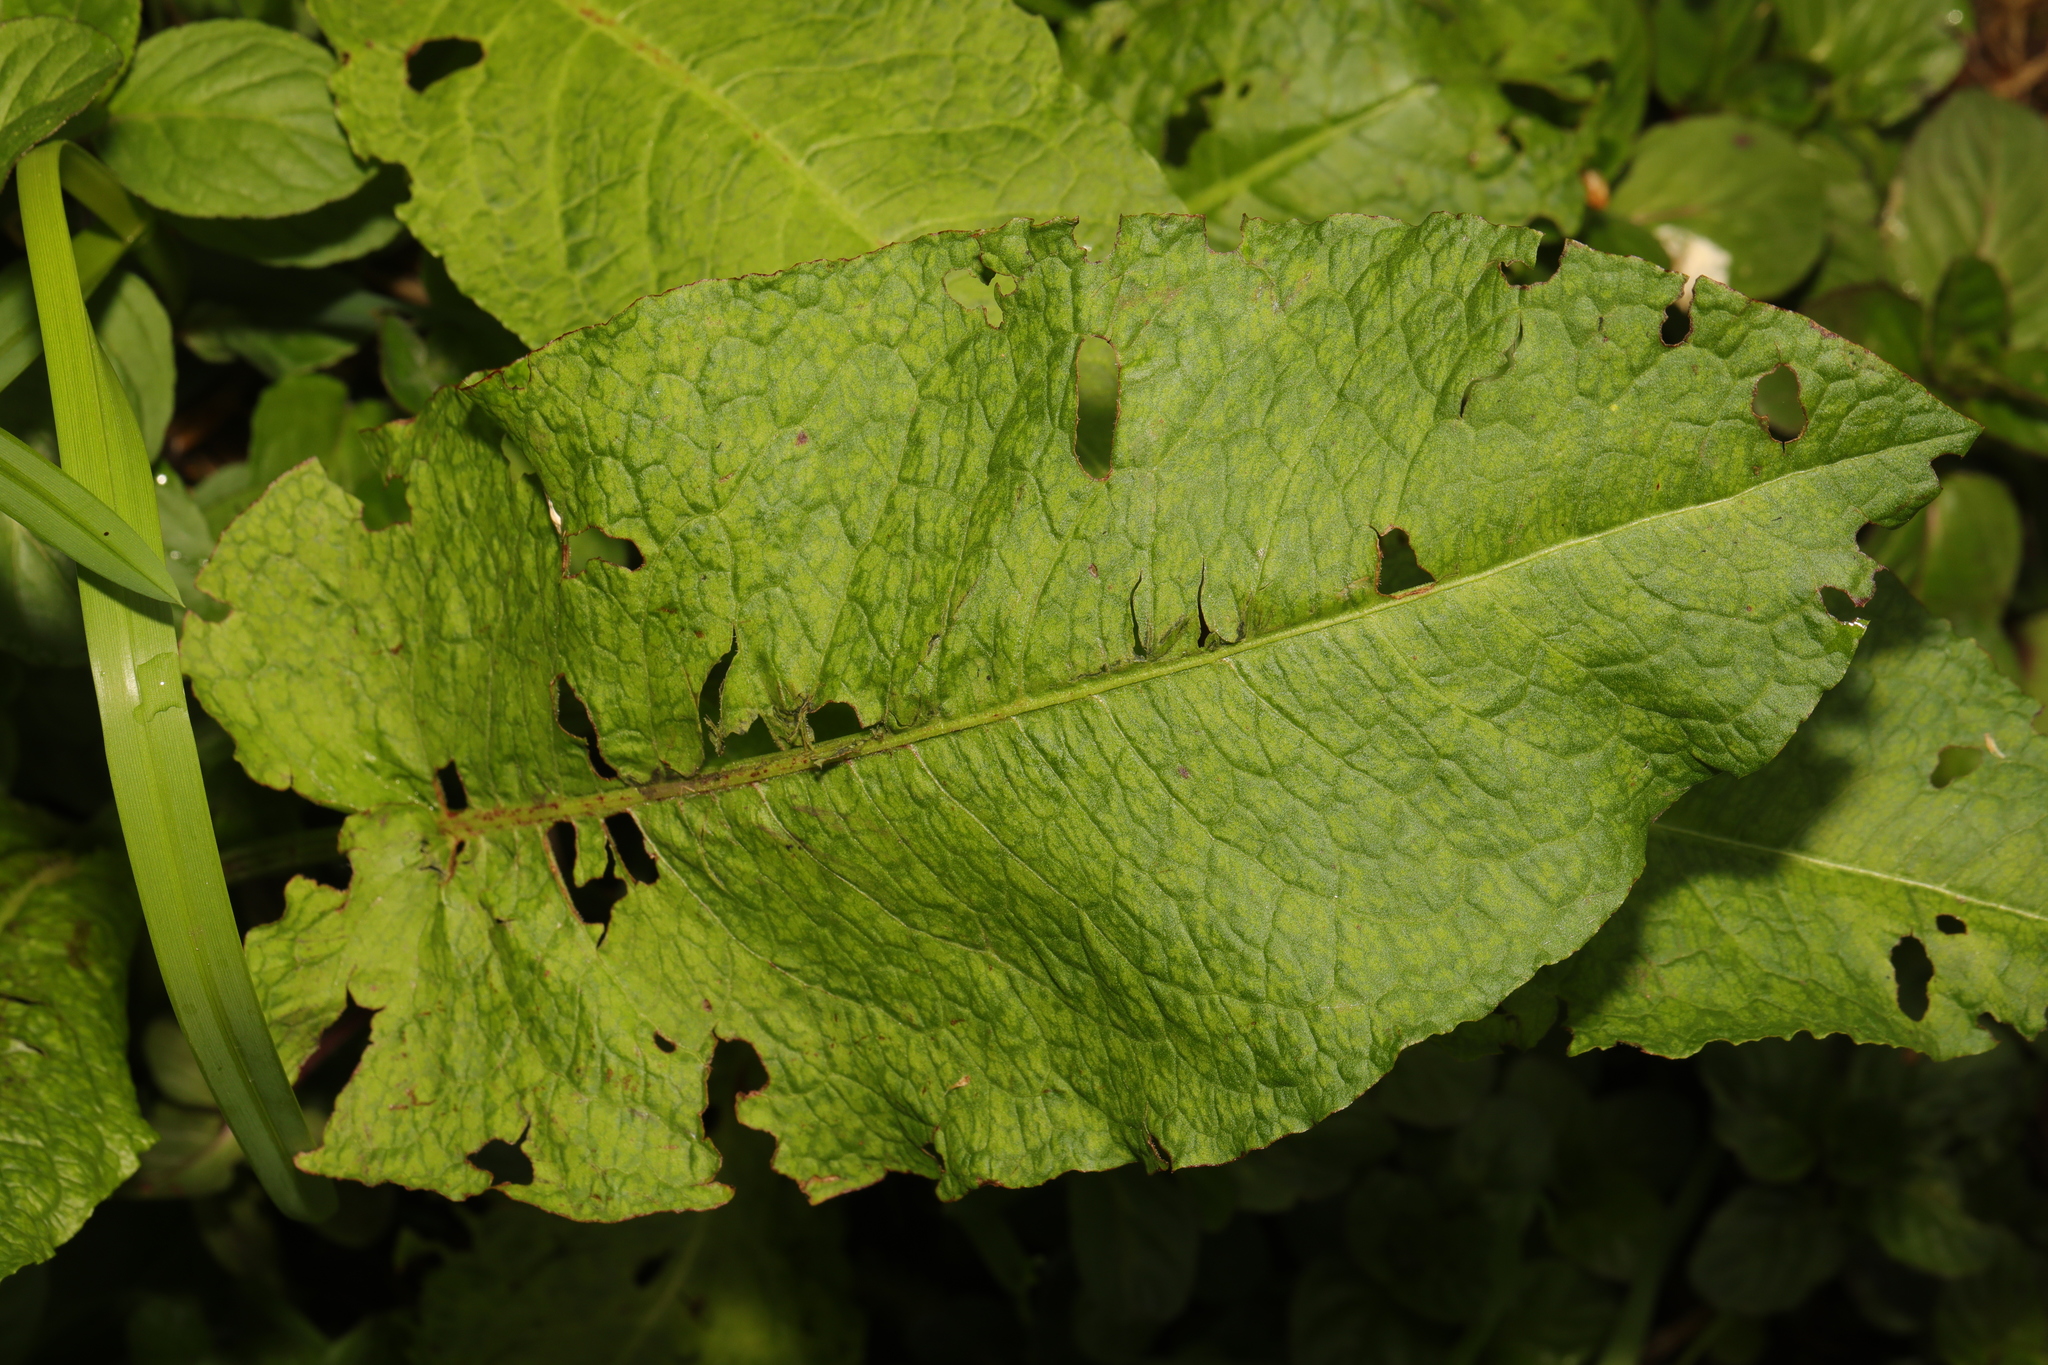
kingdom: Plantae
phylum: Tracheophyta
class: Magnoliopsida
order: Caryophyllales
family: Polygonaceae
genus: Rumex
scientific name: Rumex obtusifolius
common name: Bitter dock
